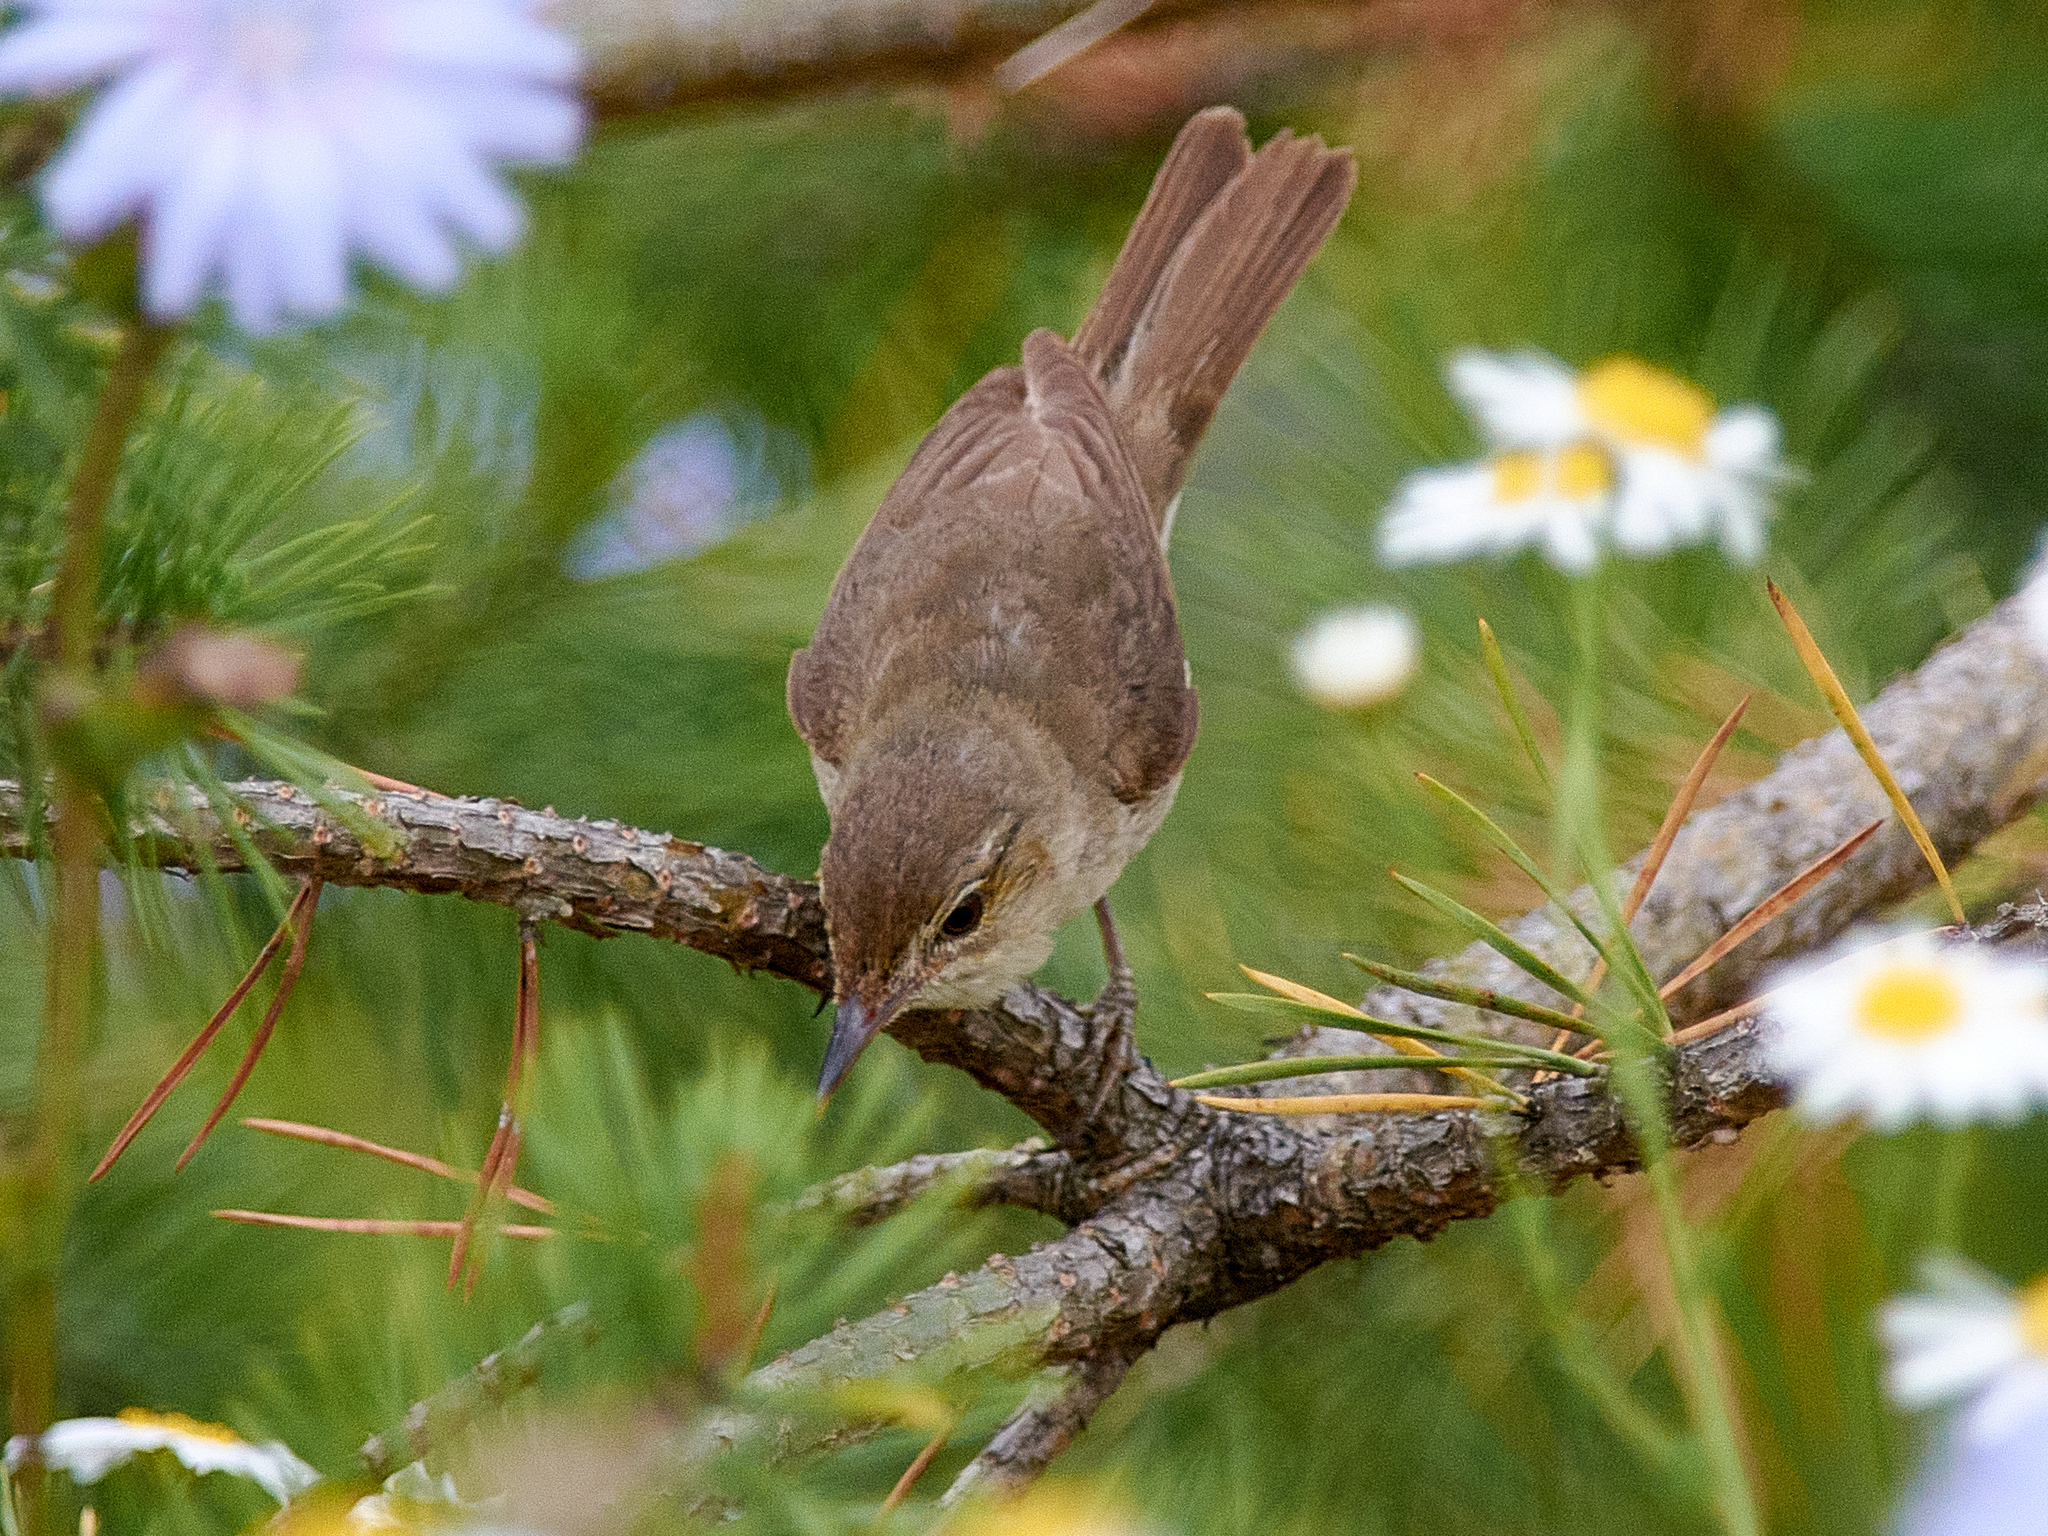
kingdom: Animalia
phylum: Chordata
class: Aves
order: Passeriformes
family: Acrocephalidae
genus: Acrocephalus
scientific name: Acrocephalus dumetorum
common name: Blyth's reed warbler
